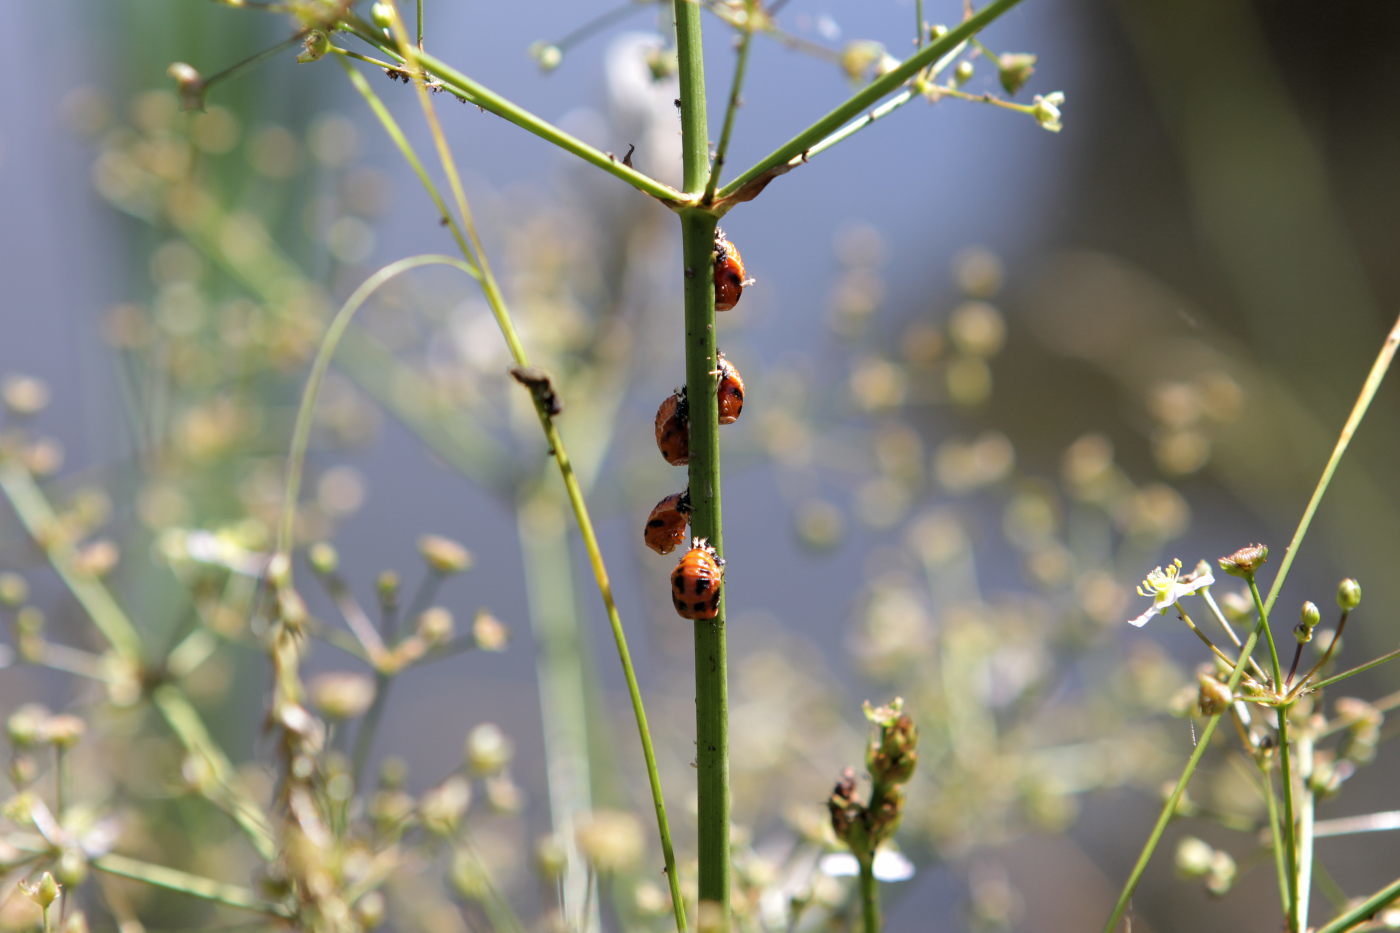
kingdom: Animalia
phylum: Arthropoda
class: Insecta
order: Coleoptera
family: Coccinellidae
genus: Harmonia
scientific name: Harmonia axyridis
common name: Harlequin ladybird
